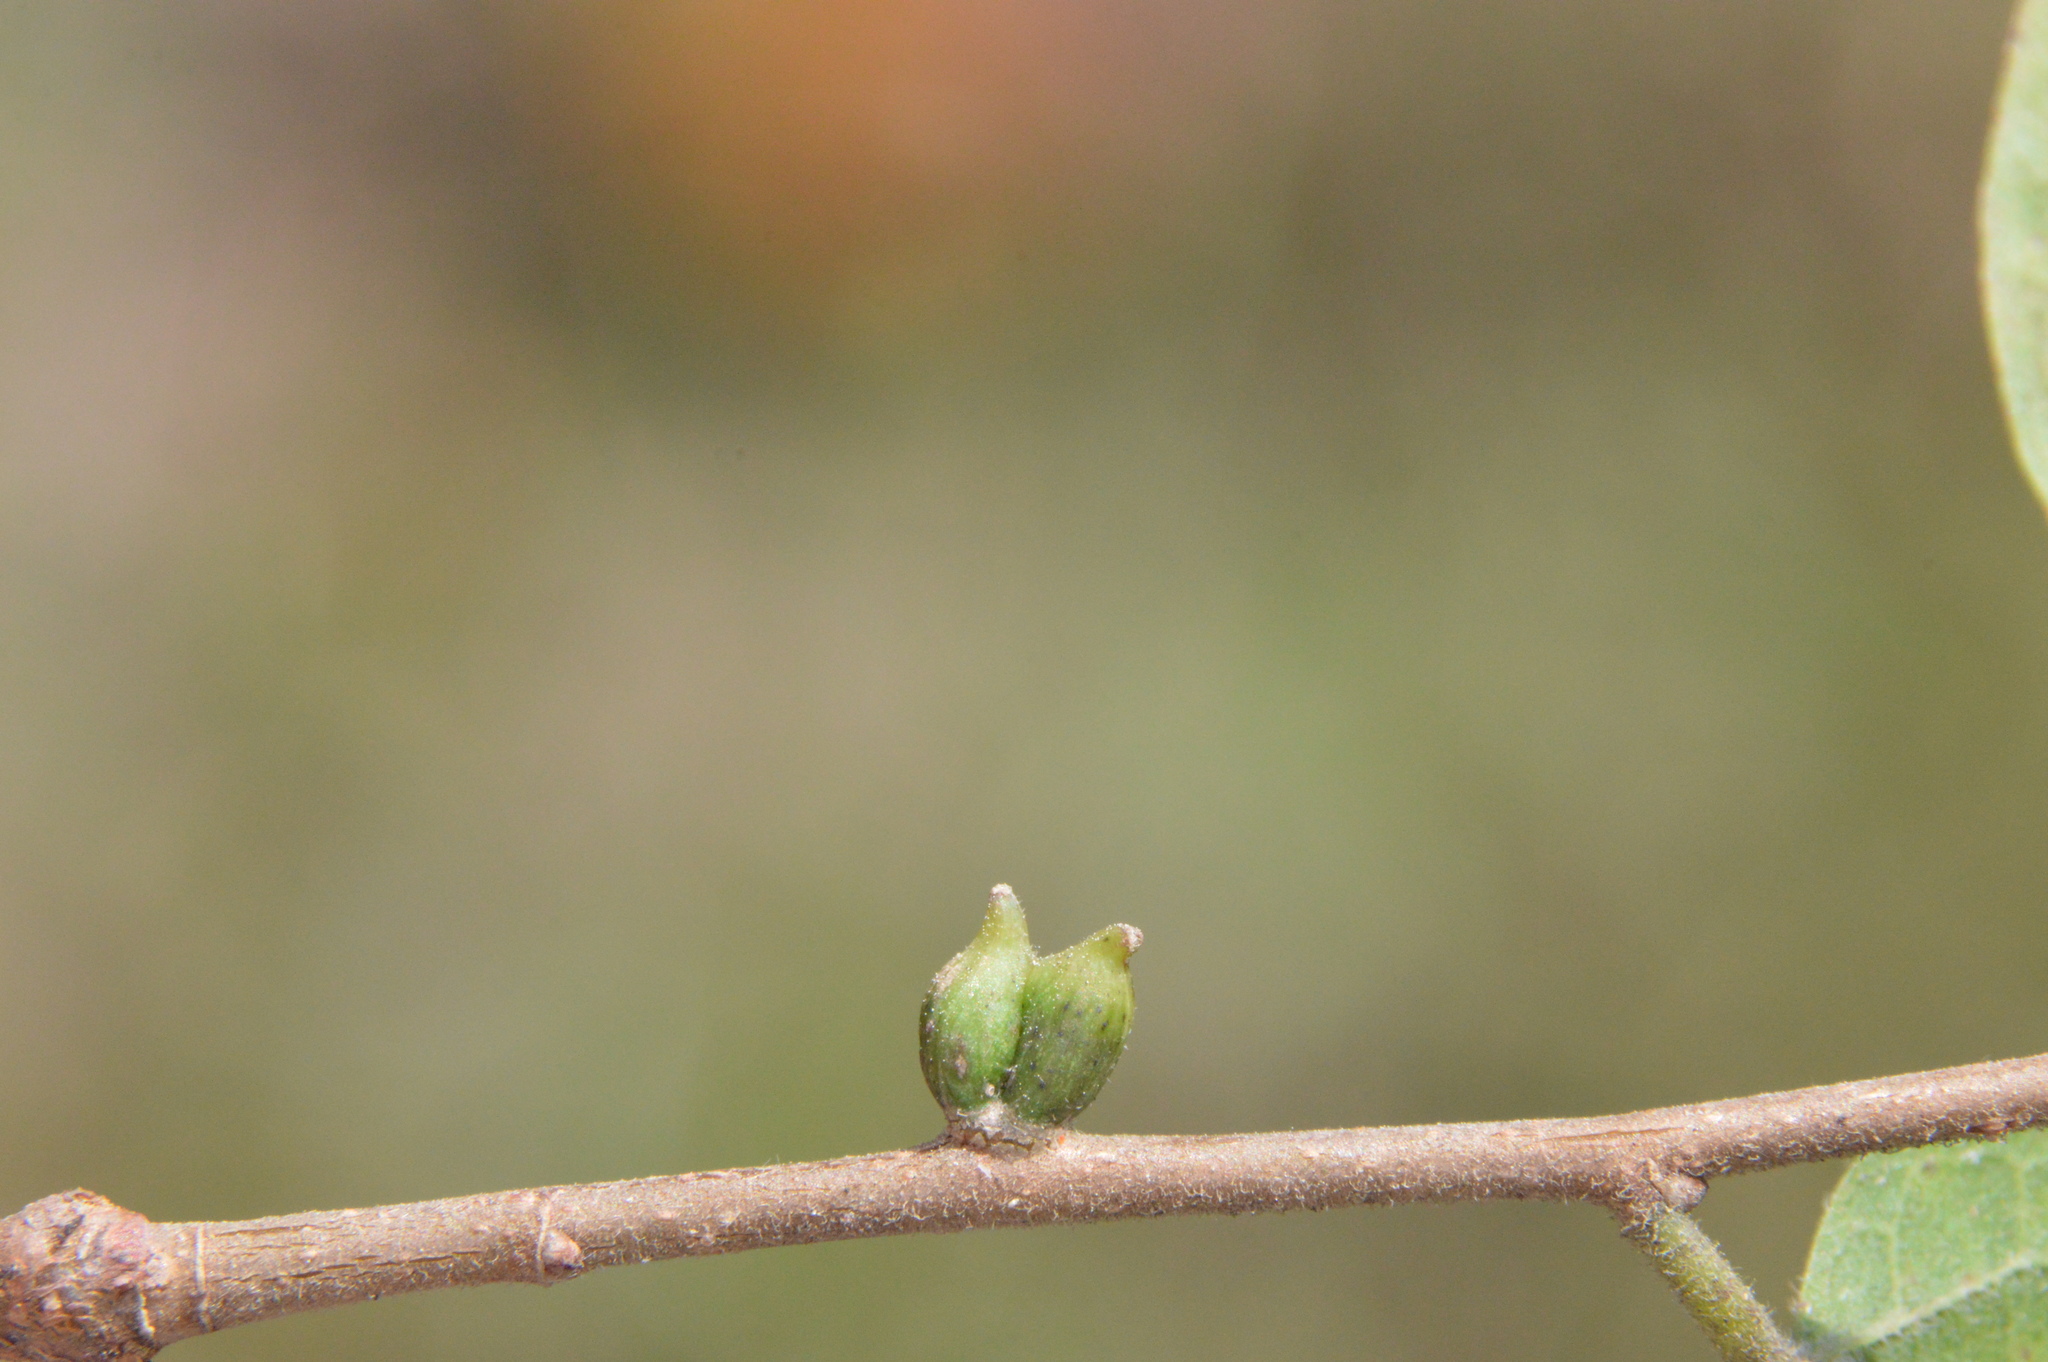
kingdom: Animalia
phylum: Arthropoda
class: Insecta
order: Diptera
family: Cecidomyiidae
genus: Celticecis
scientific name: Celticecis ramicola
